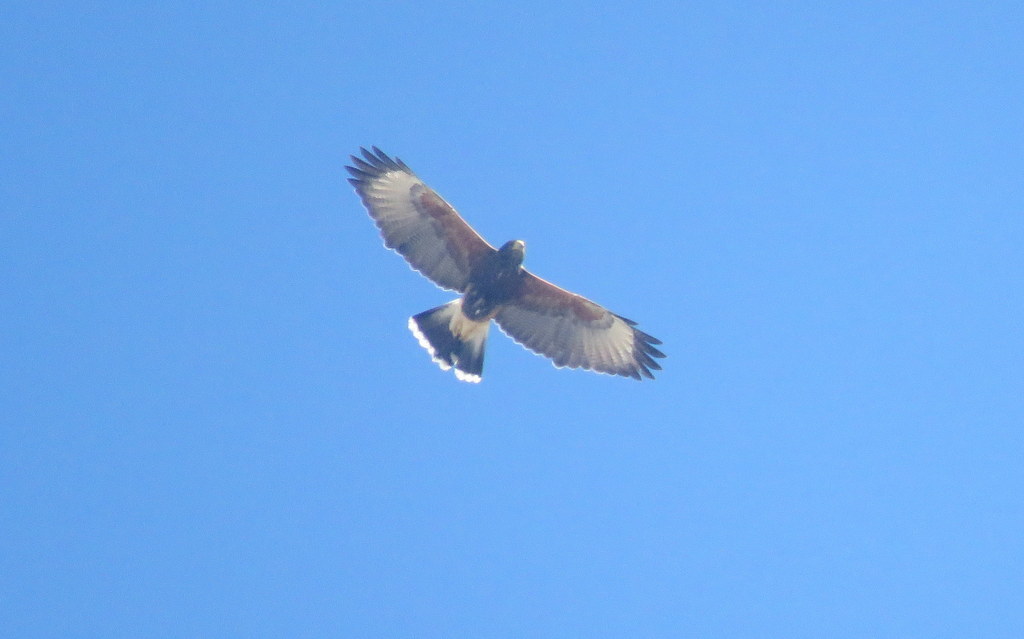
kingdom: Animalia
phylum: Chordata
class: Aves
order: Accipitriformes
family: Accipitridae
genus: Parabuteo
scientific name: Parabuteo unicinctus
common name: Harris's hawk
